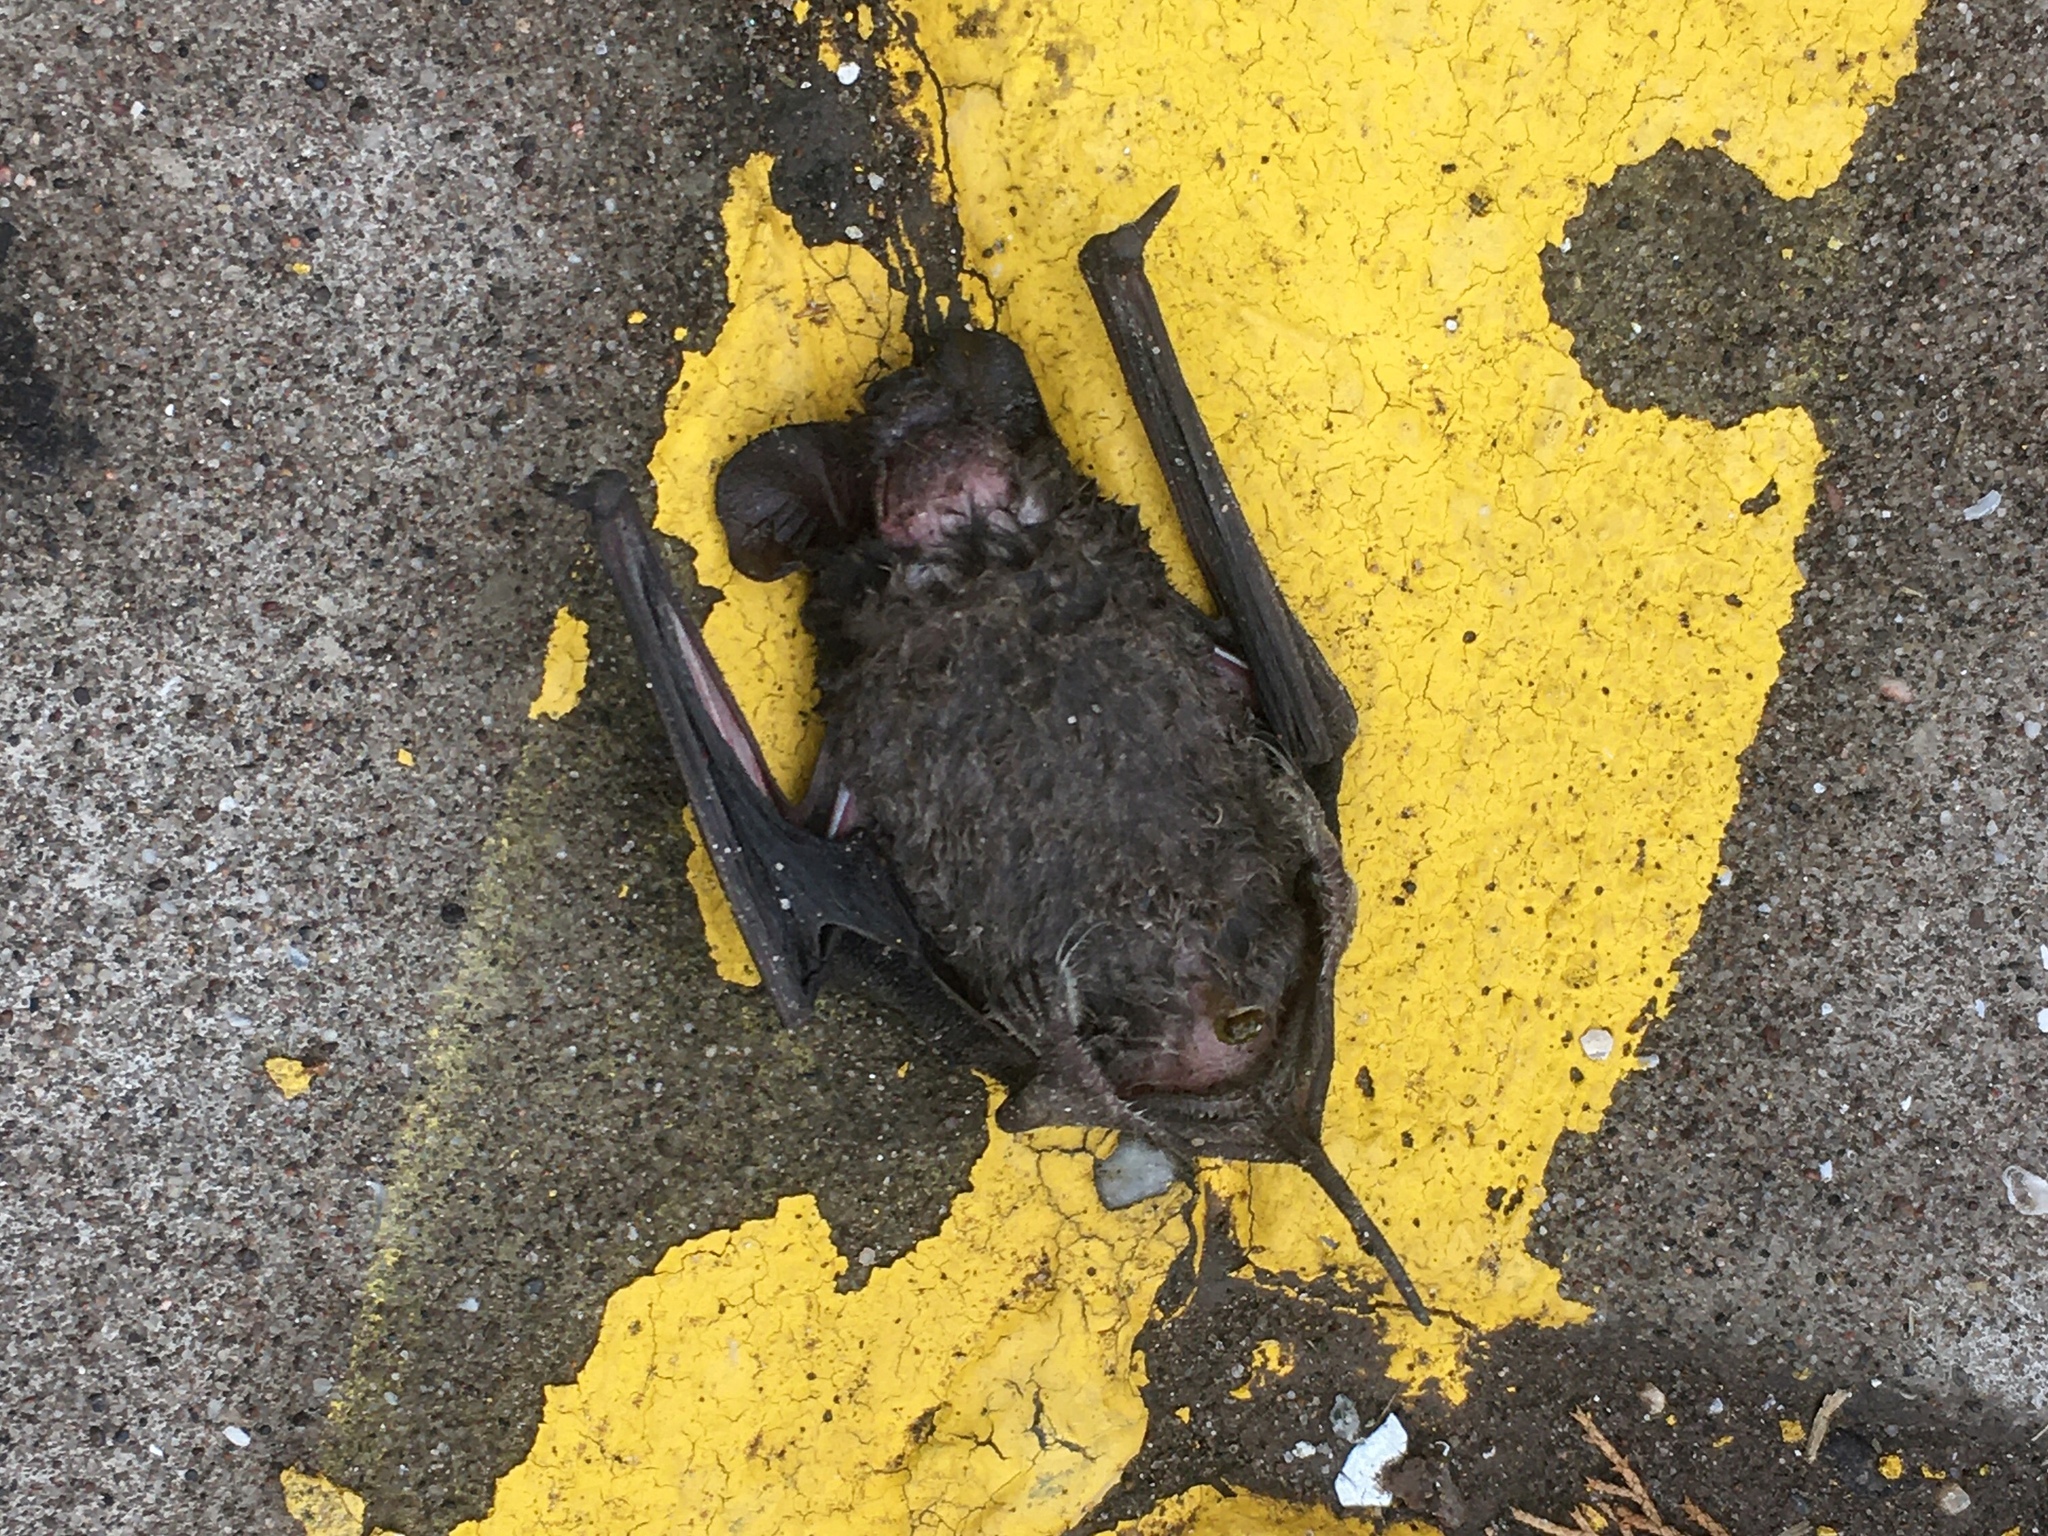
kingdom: Animalia
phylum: Chordata
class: Mammalia
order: Chiroptera
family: Molossidae
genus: Tadarida
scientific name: Tadarida brasiliensis
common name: Mexican free-tailed bat
